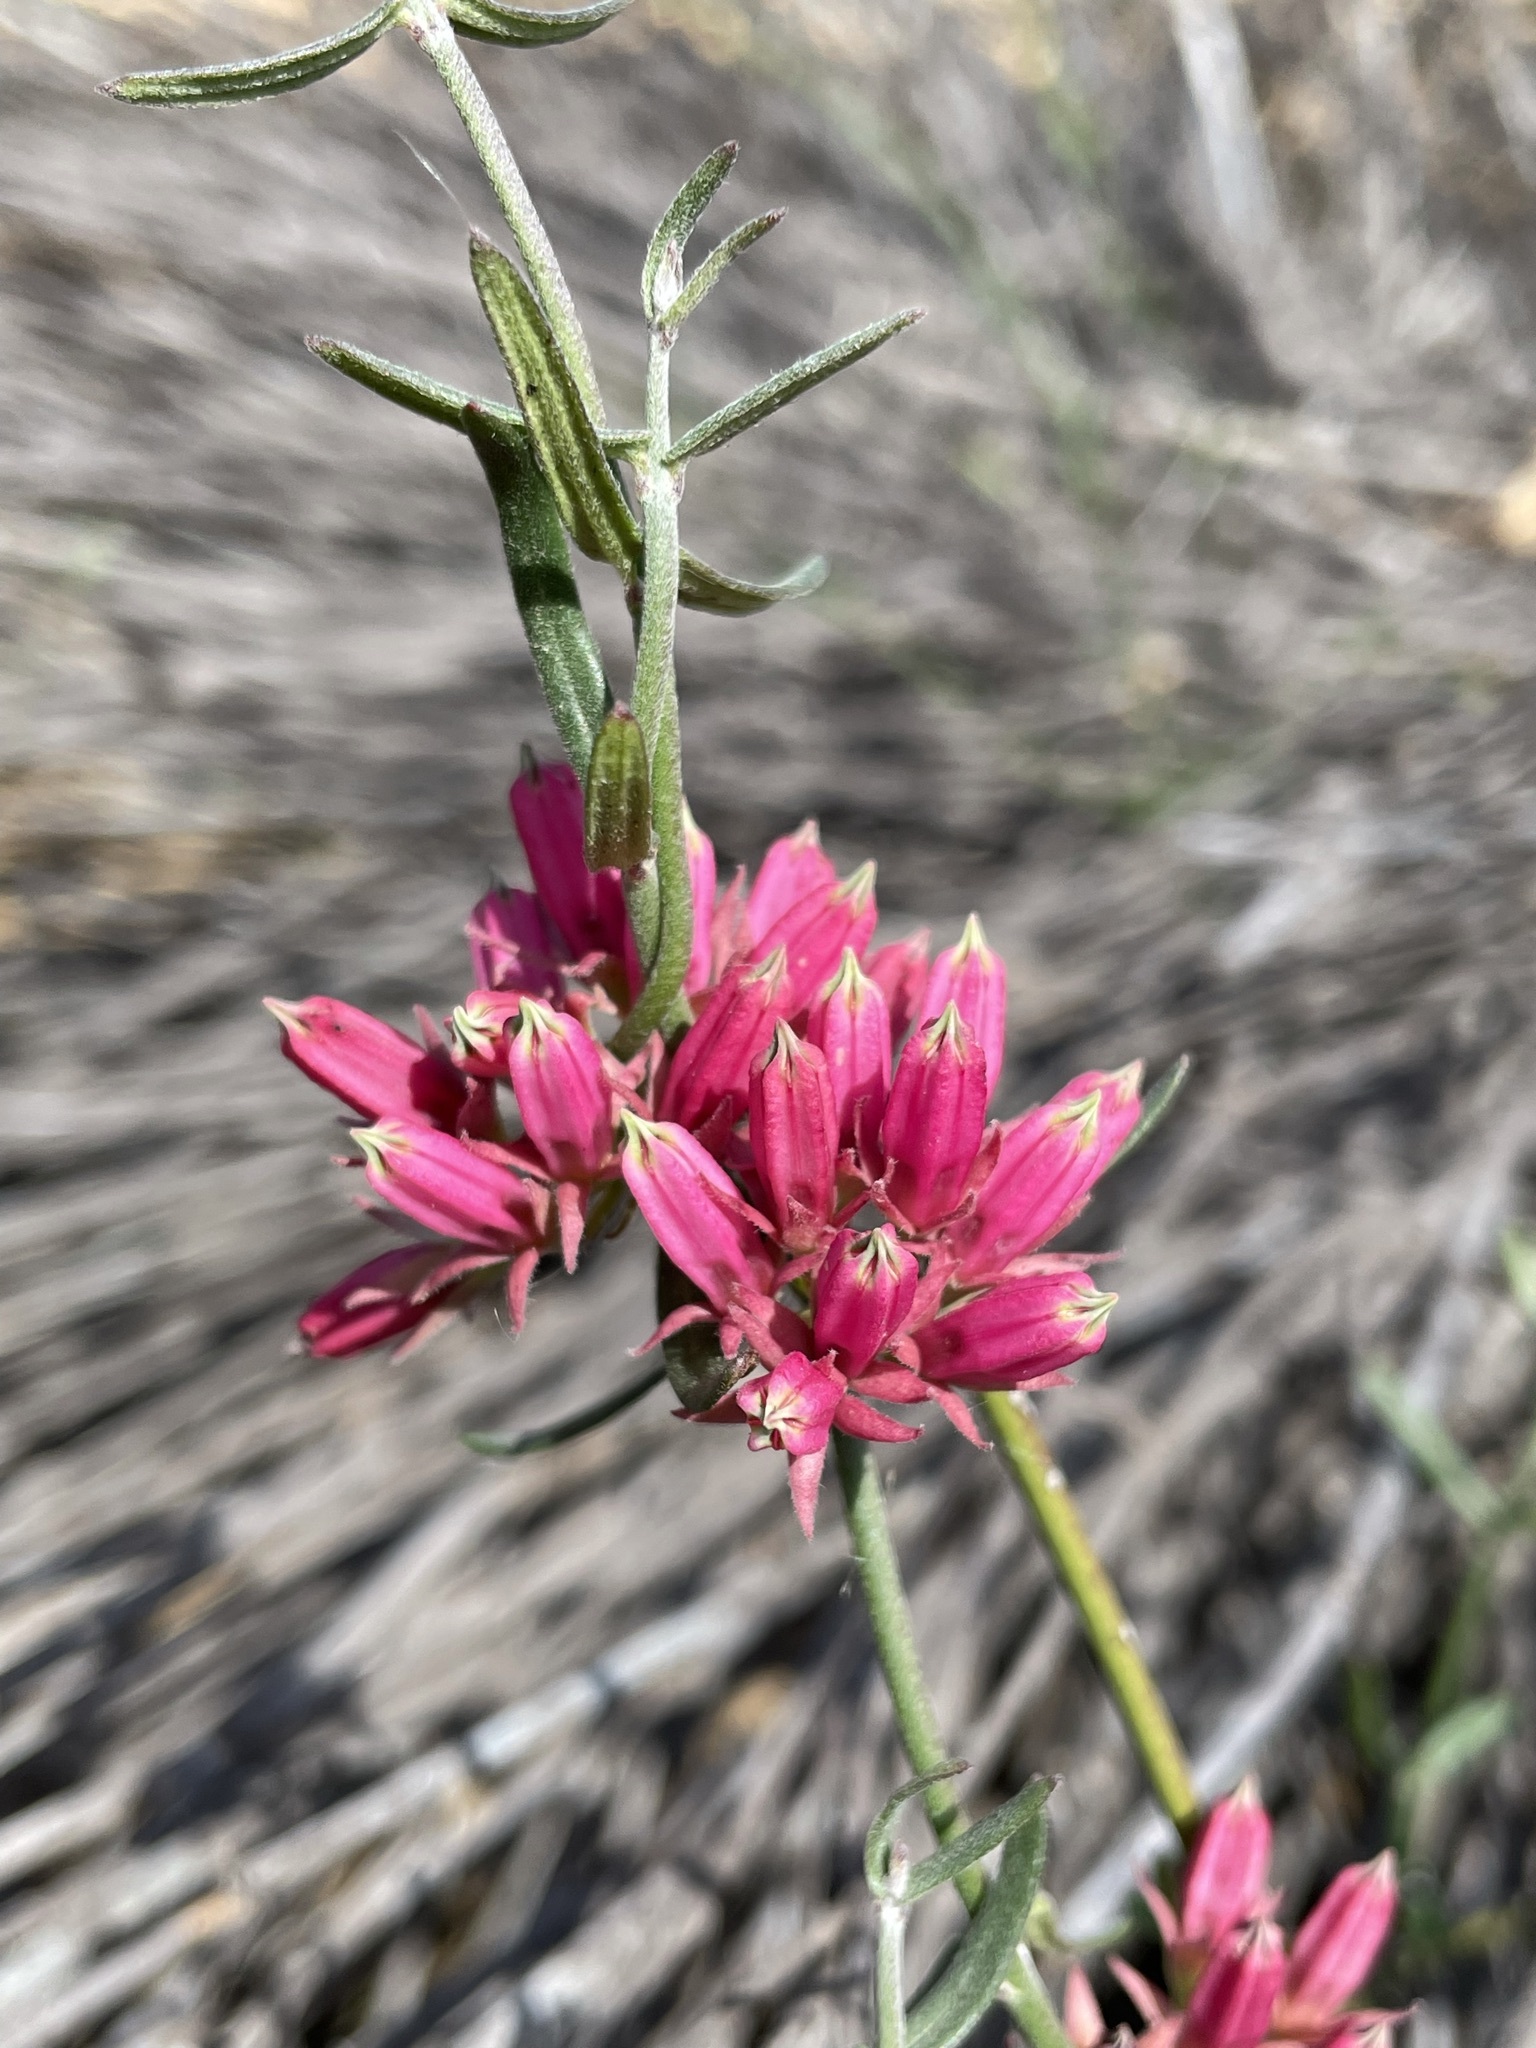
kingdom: Plantae
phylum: Tracheophyta
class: Magnoliopsida
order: Gentianales
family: Apocynaceae
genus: Microloma
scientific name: Microloma sagittatum
